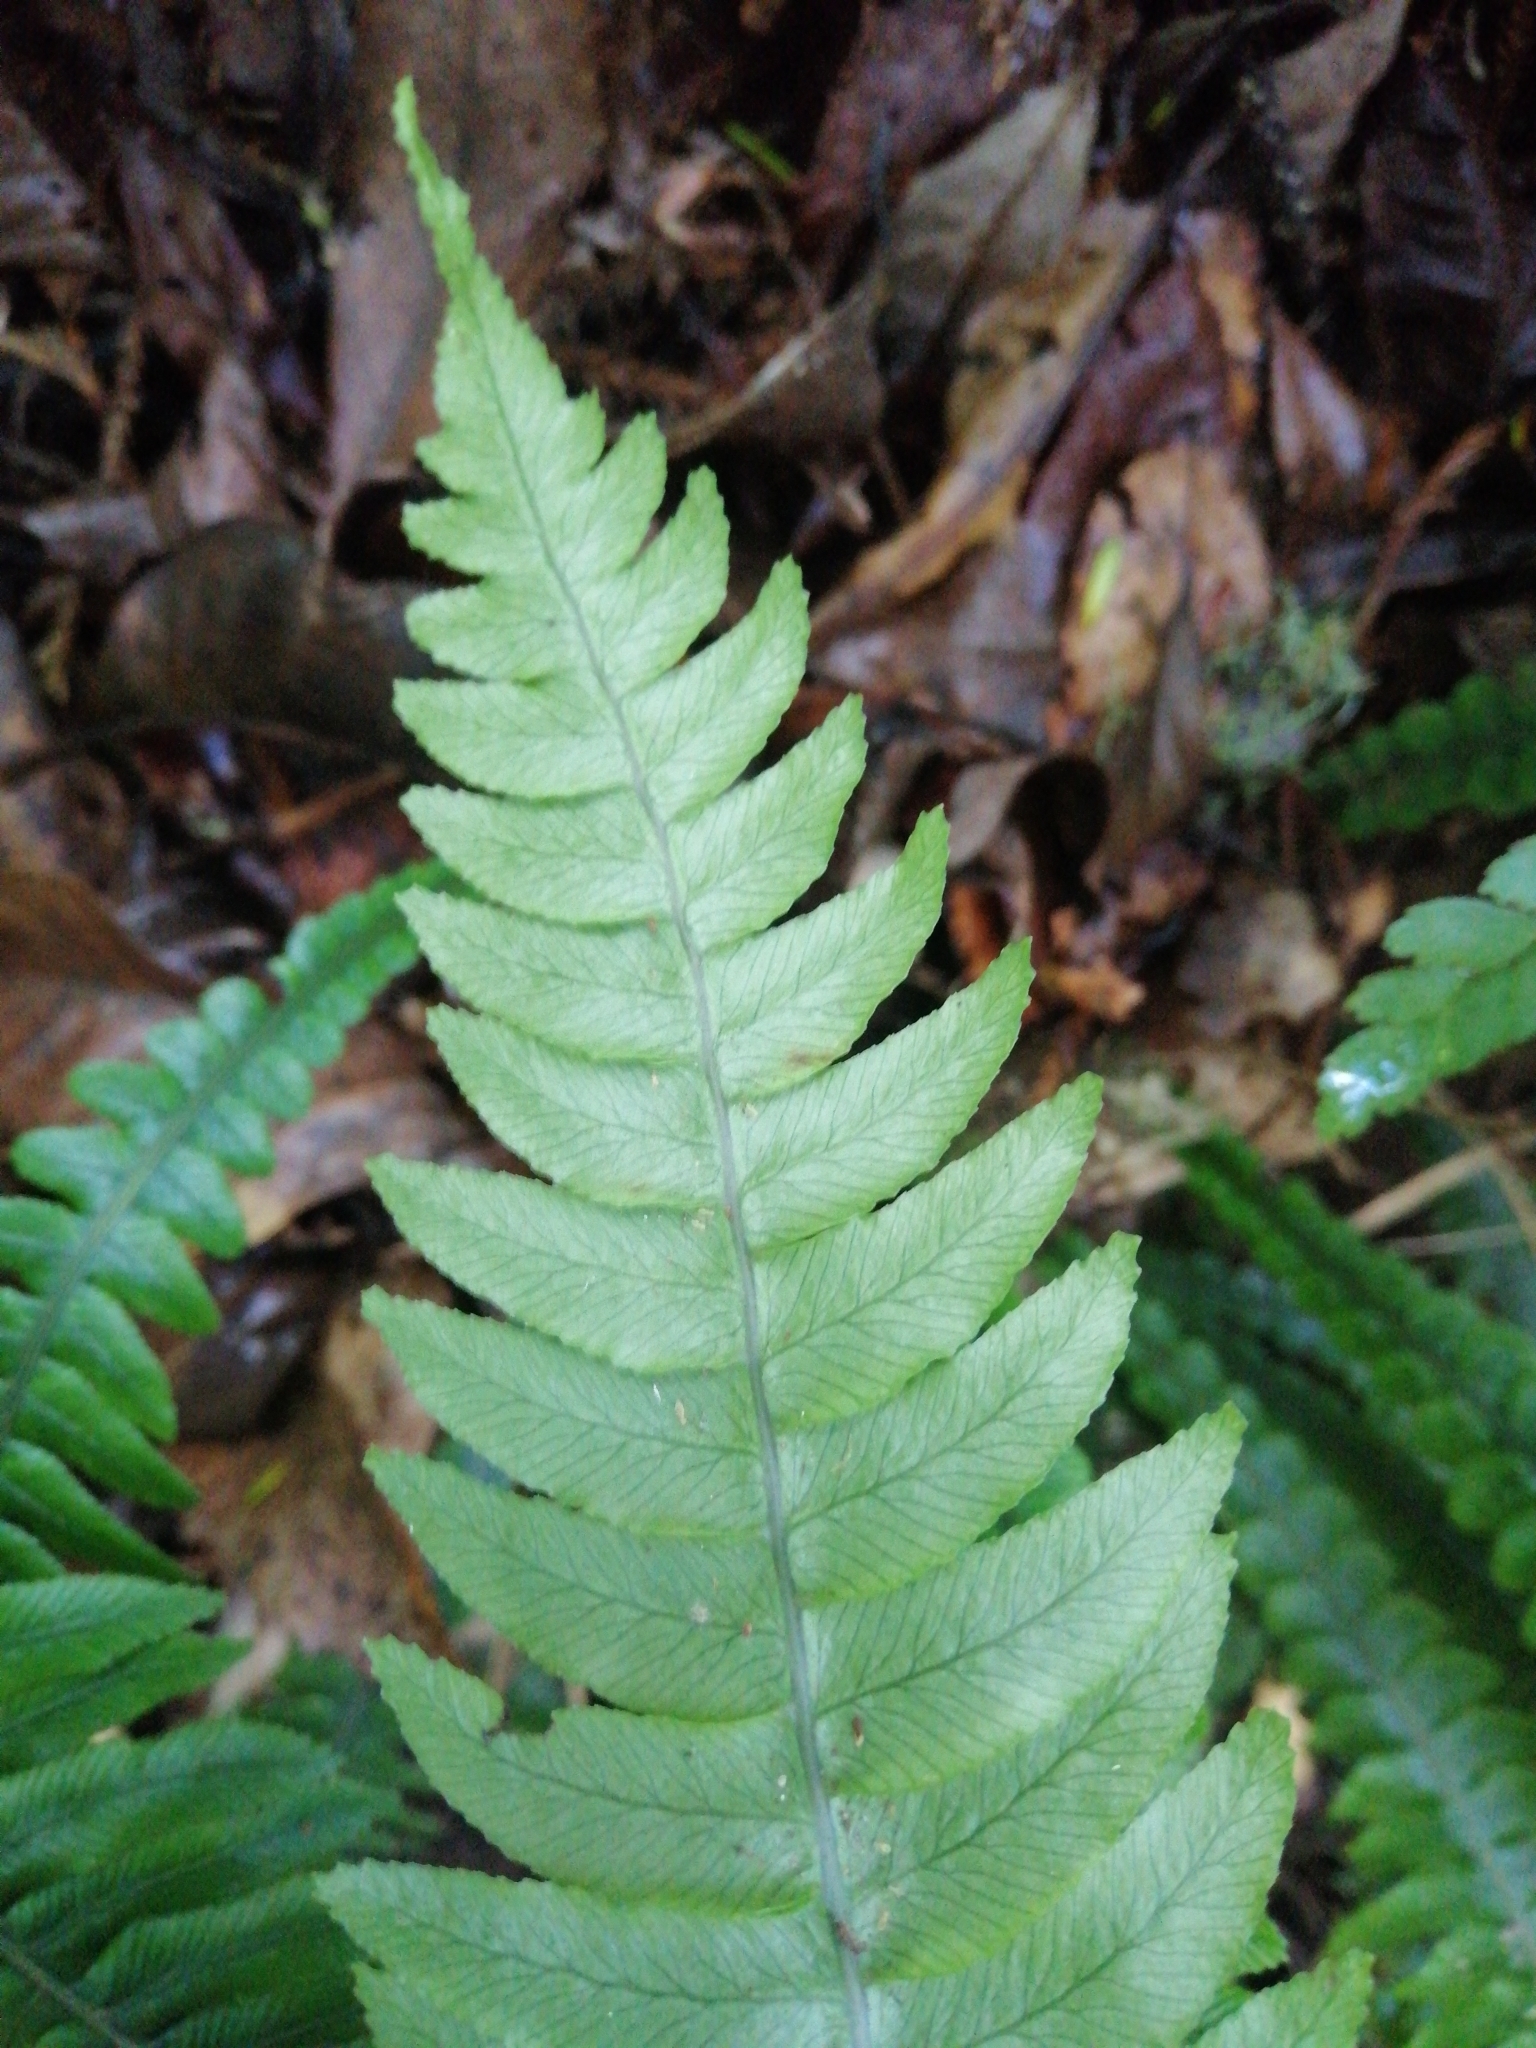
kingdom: Plantae
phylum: Tracheophyta
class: Polypodiopsida
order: Polypodiales
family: Blechnaceae
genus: Austroblechnum
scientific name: Austroblechnum lanceolatum
